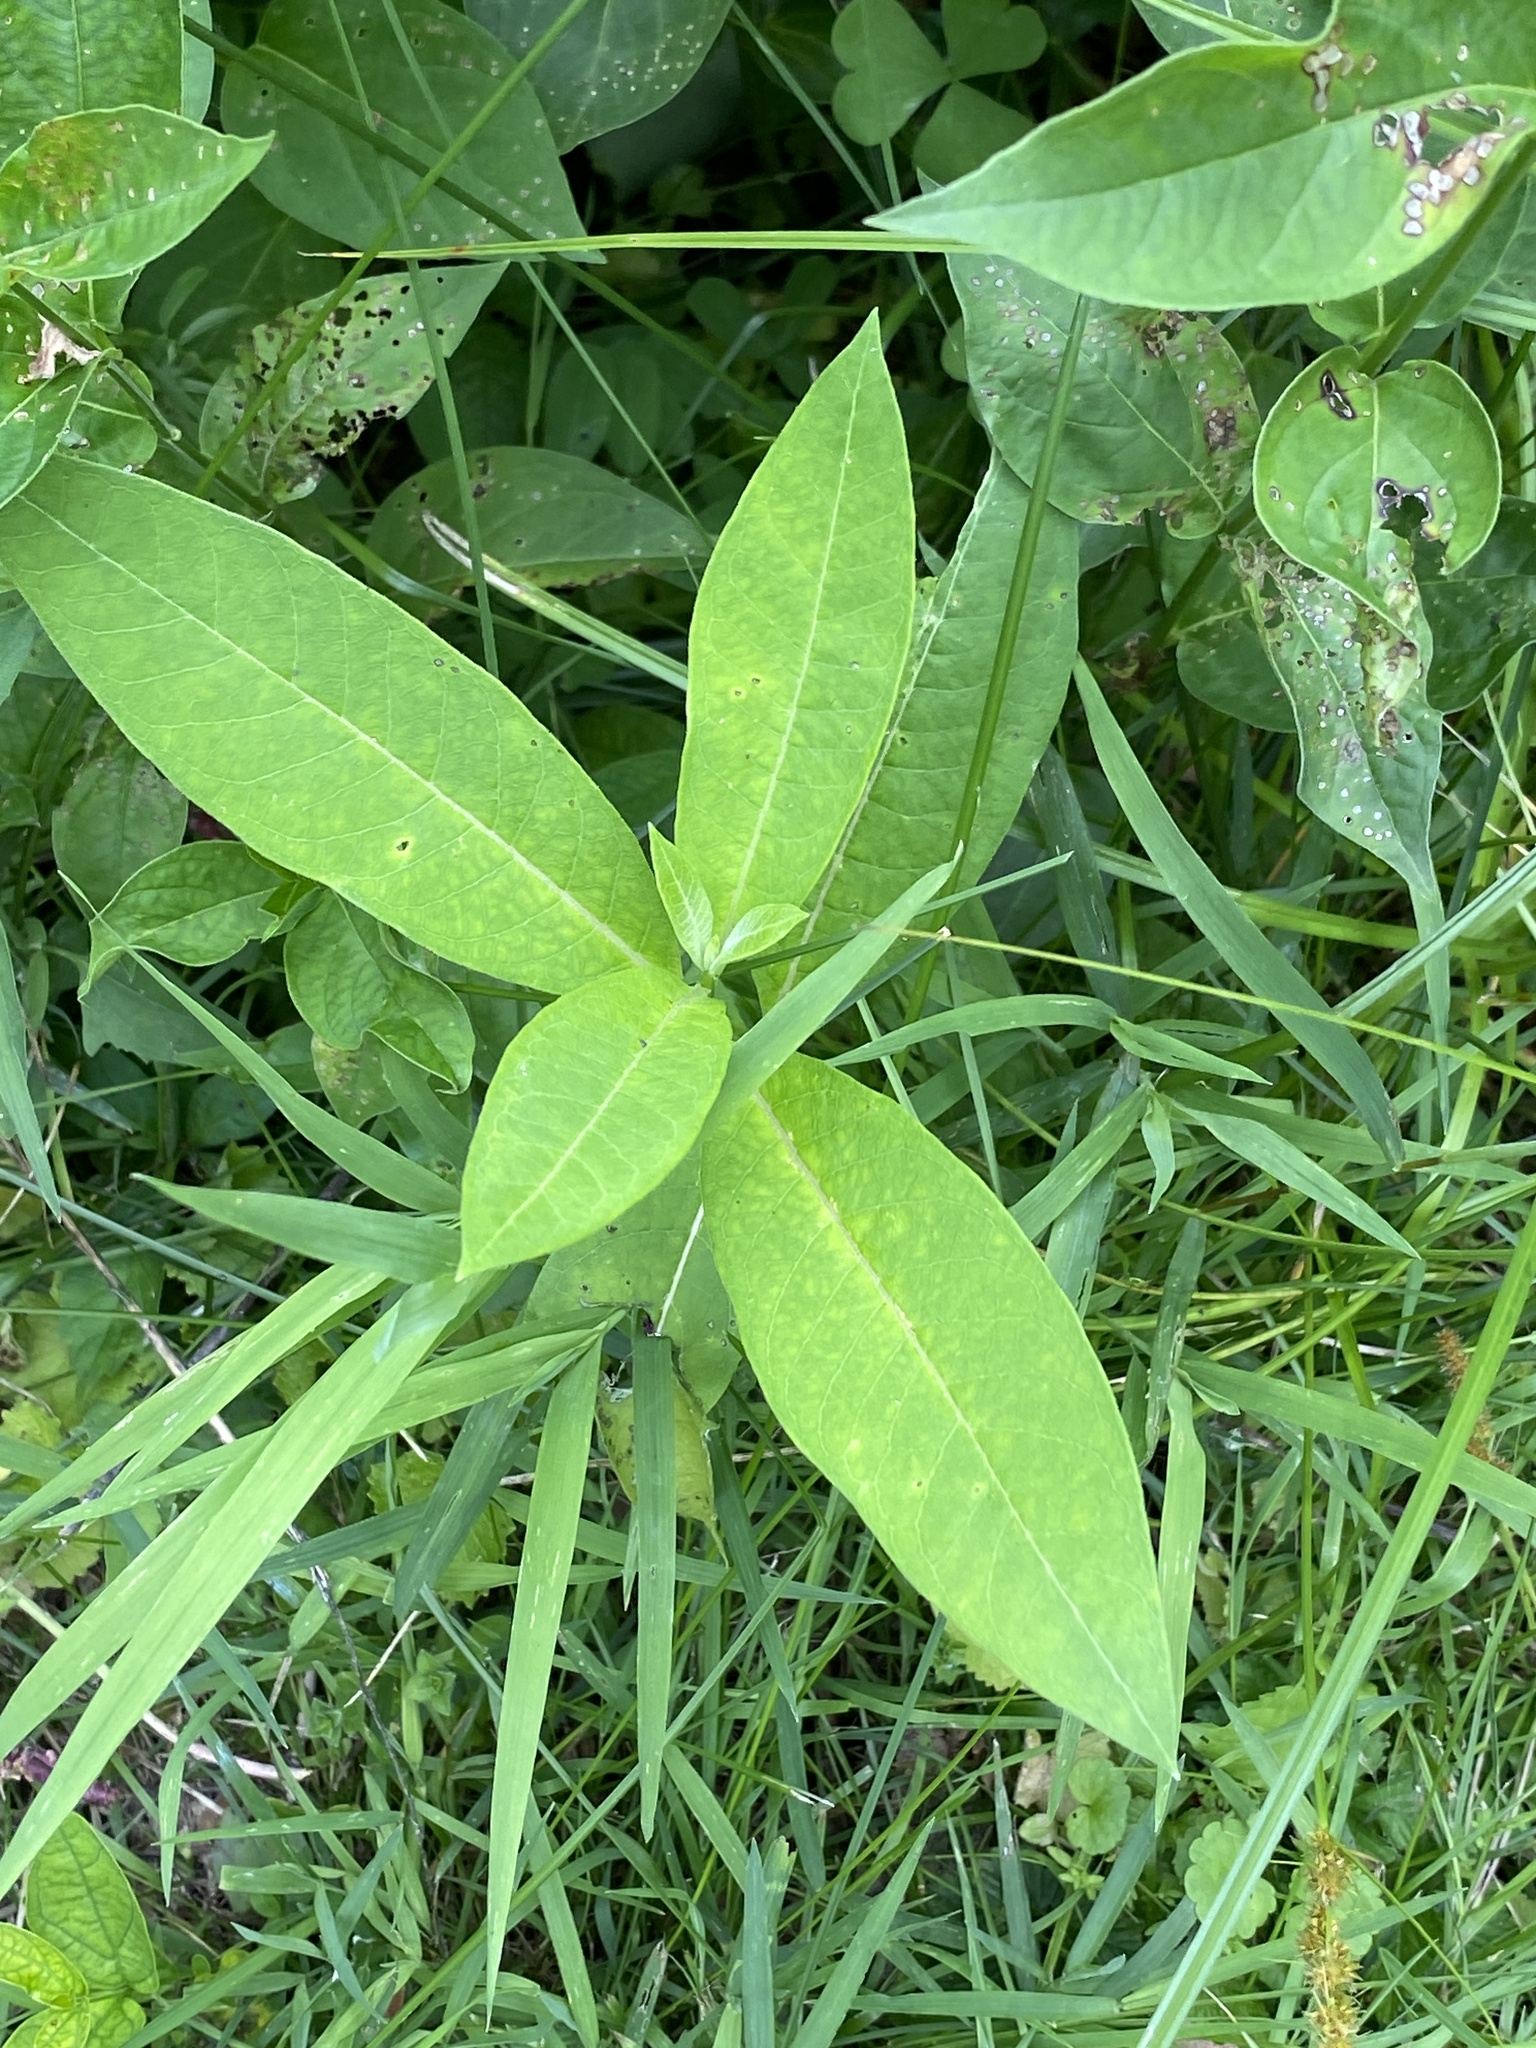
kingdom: Plantae
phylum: Tracheophyta
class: Magnoliopsida
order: Gentianales
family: Apocynaceae
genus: Asclepias
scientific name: Asclepias syriaca
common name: Common milkweed
